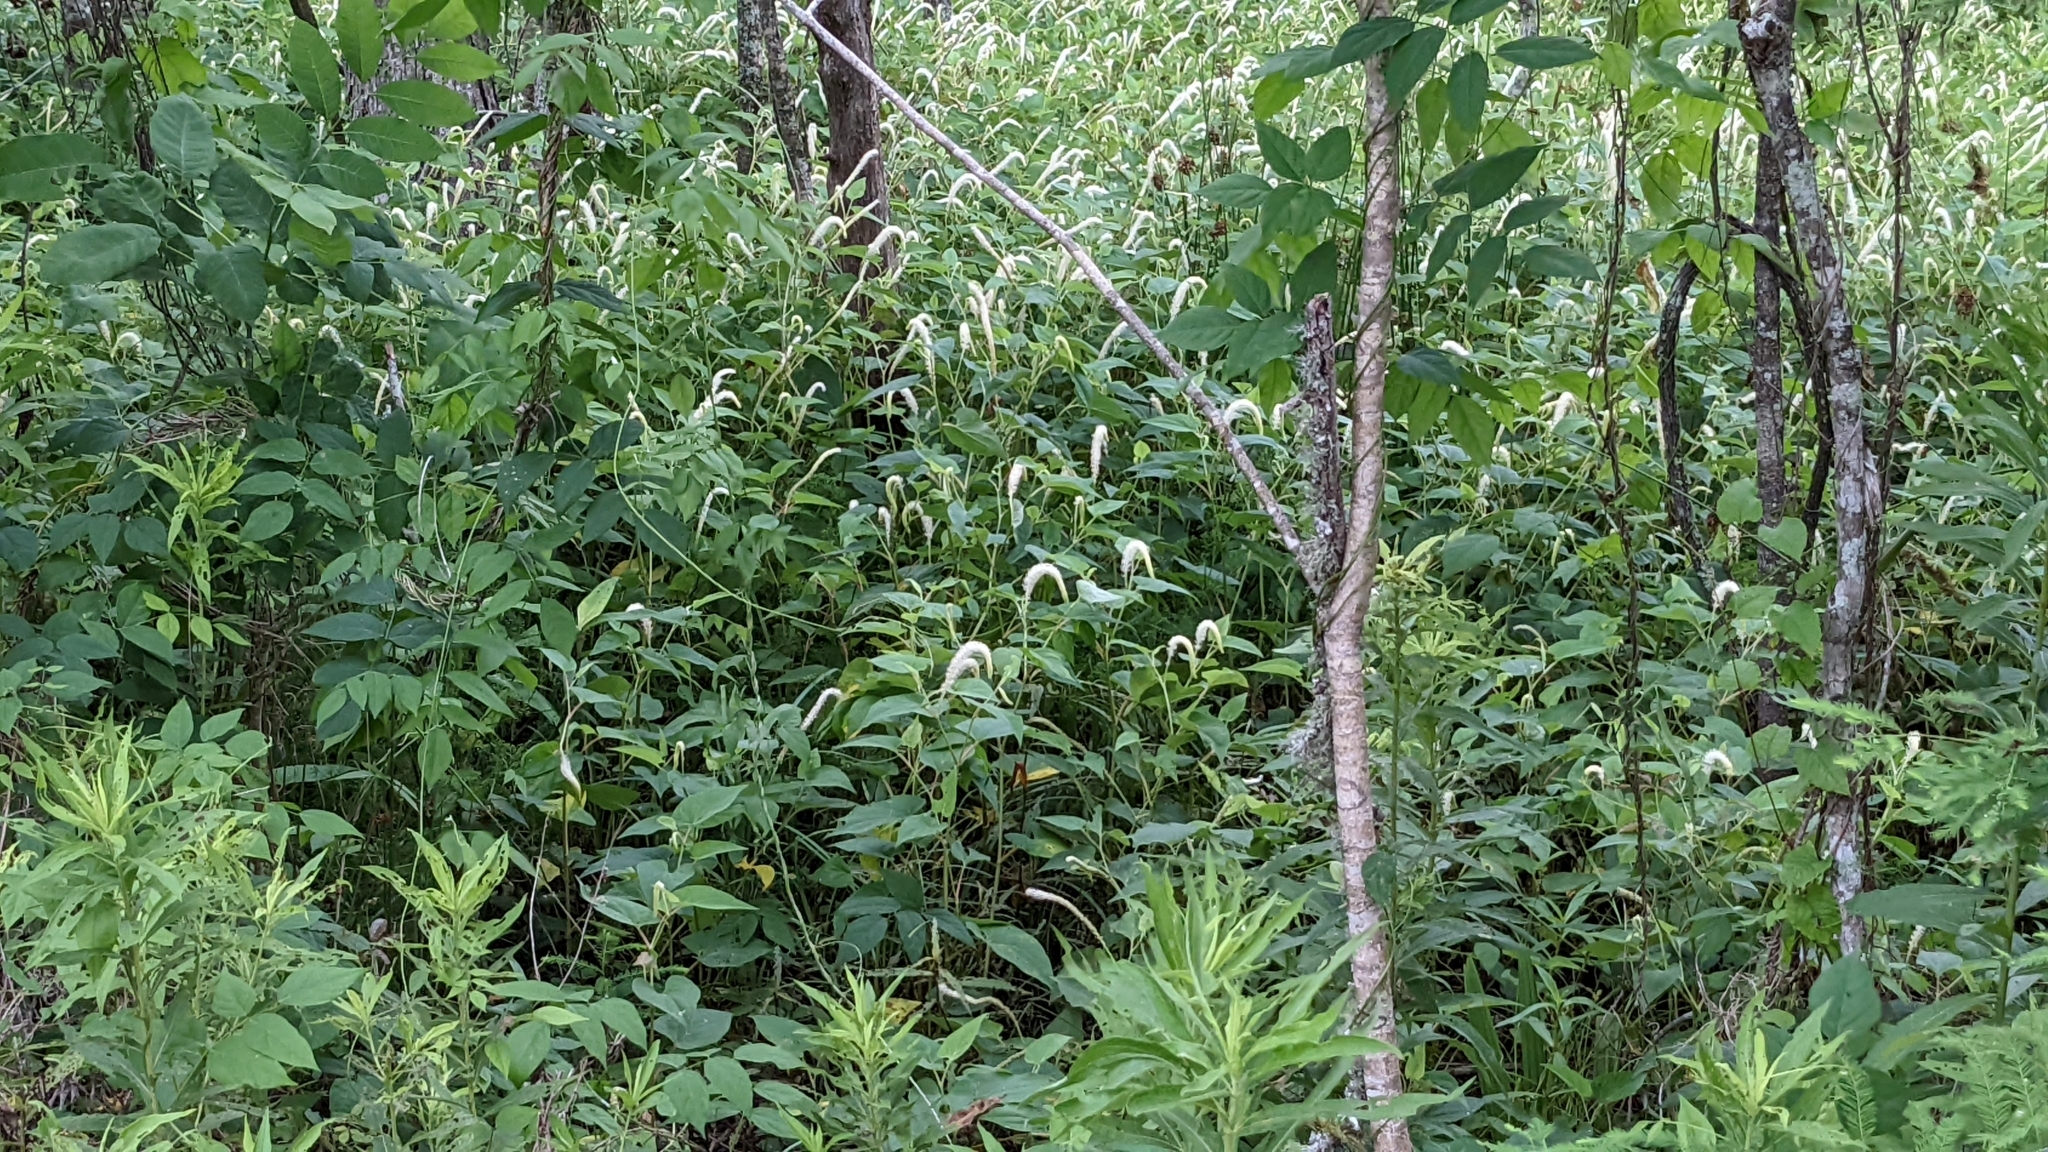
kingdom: Plantae
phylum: Tracheophyta
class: Magnoliopsida
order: Piperales
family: Saururaceae
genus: Saururus
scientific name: Saururus cernuus
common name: Lizard's-tail
